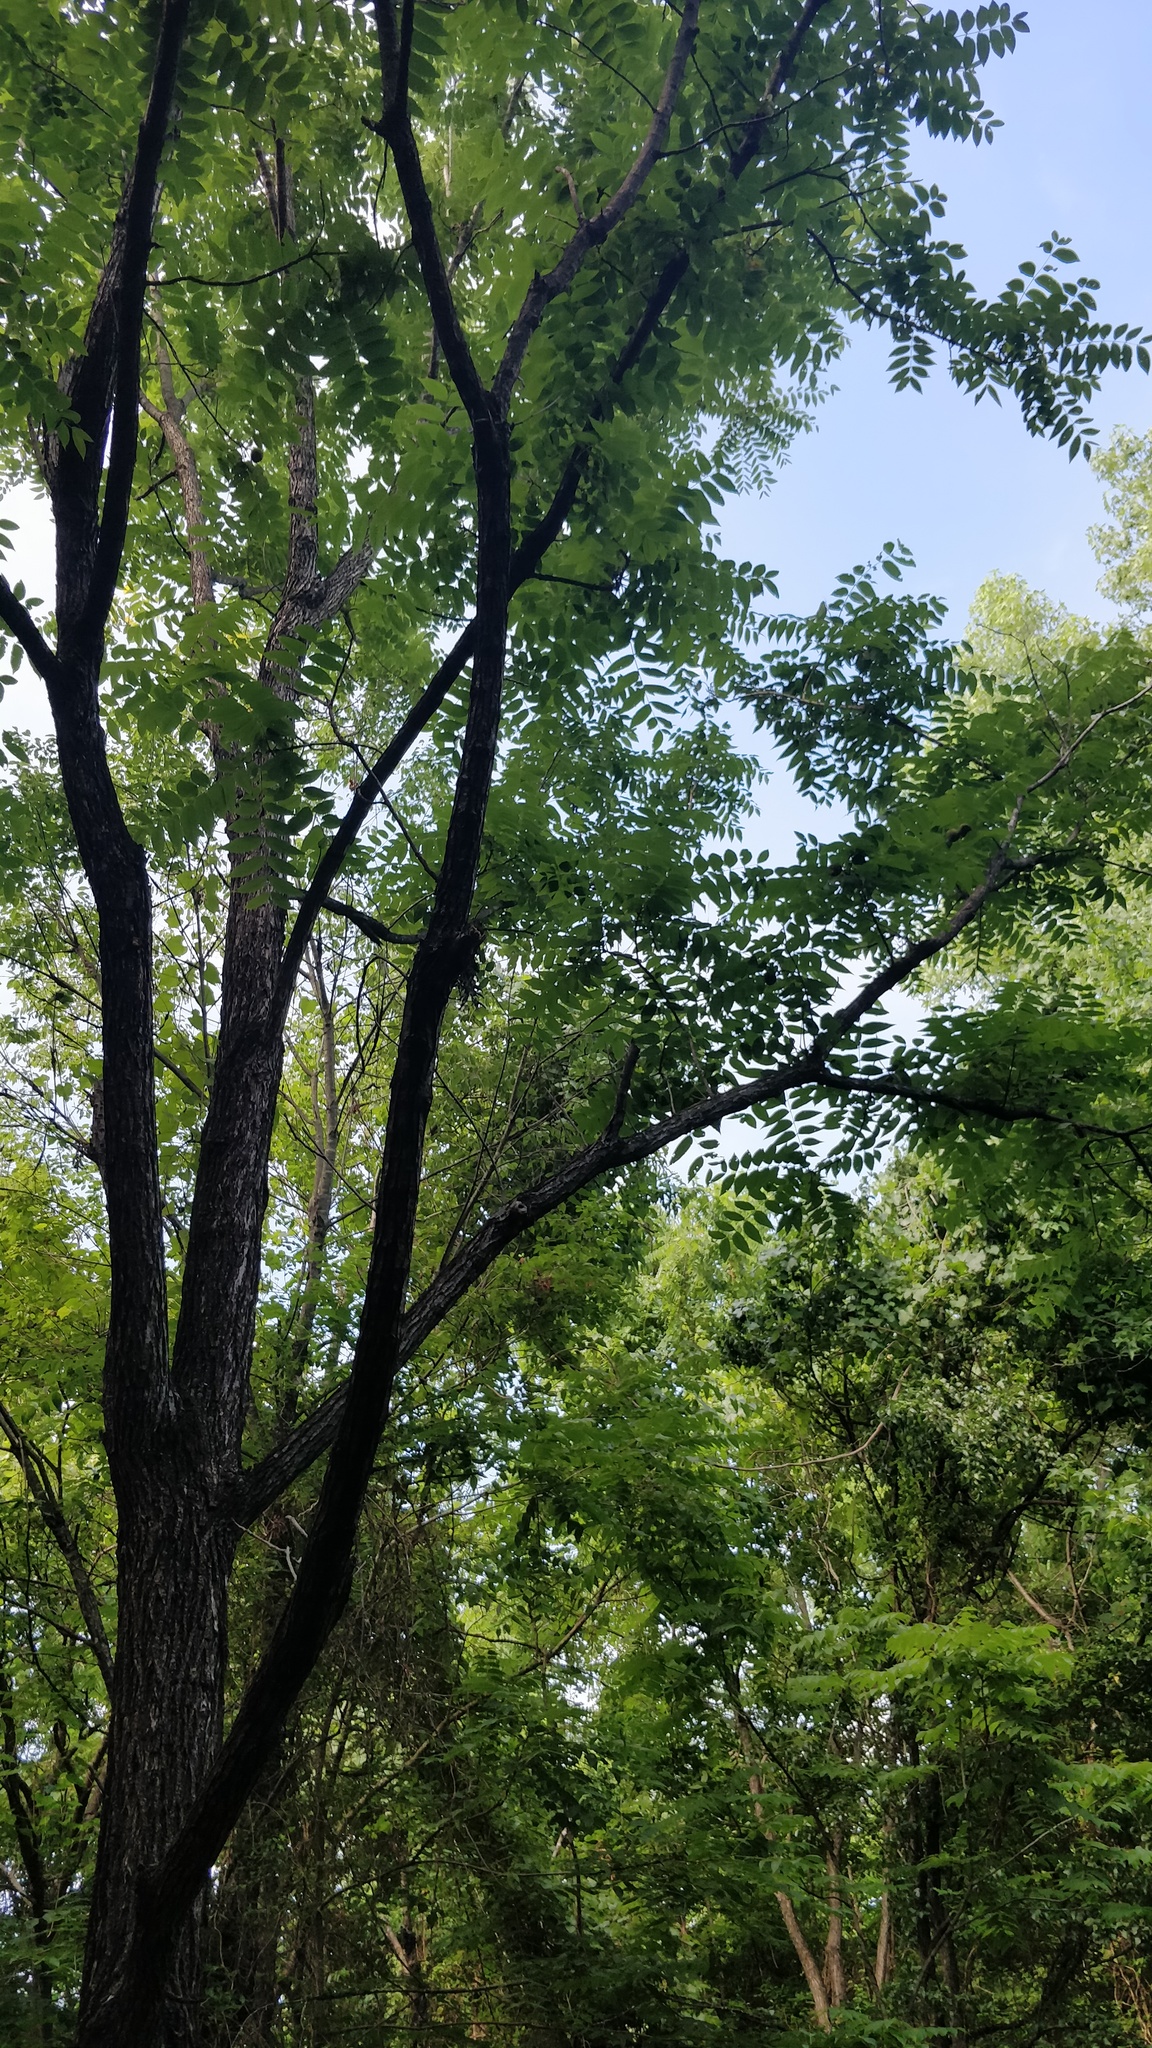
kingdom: Plantae
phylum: Tracheophyta
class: Magnoliopsida
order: Fagales
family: Juglandaceae
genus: Juglans
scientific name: Juglans nigra
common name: Black walnut
